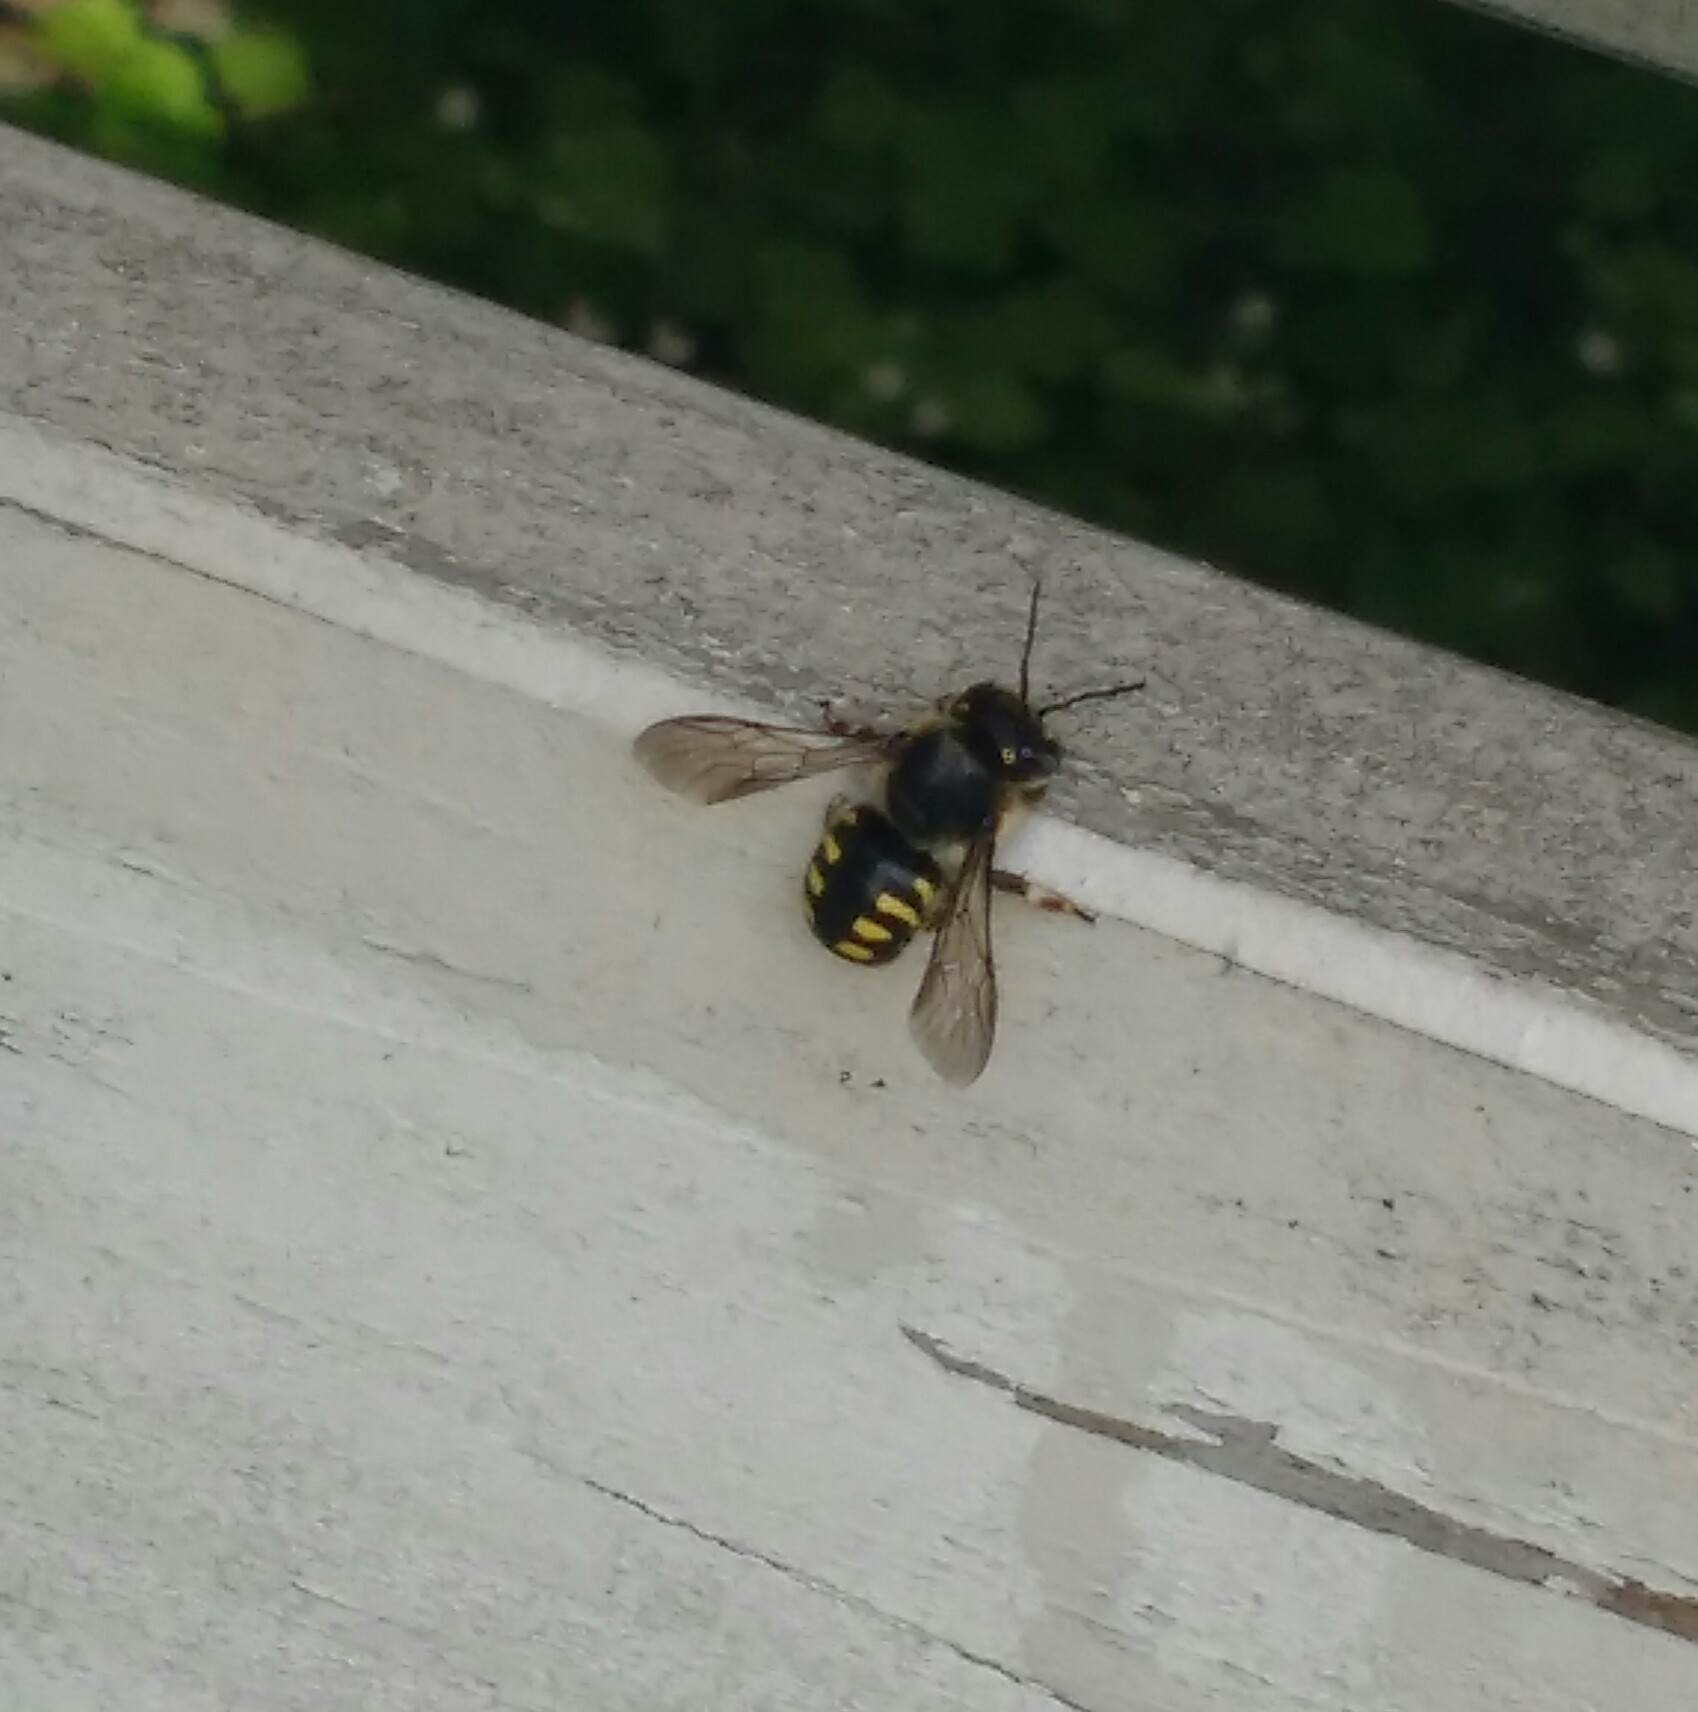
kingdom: Animalia
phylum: Arthropoda
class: Insecta
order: Hymenoptera
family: Megachilidae
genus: Anthidium
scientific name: Anthidium septemspinosum
